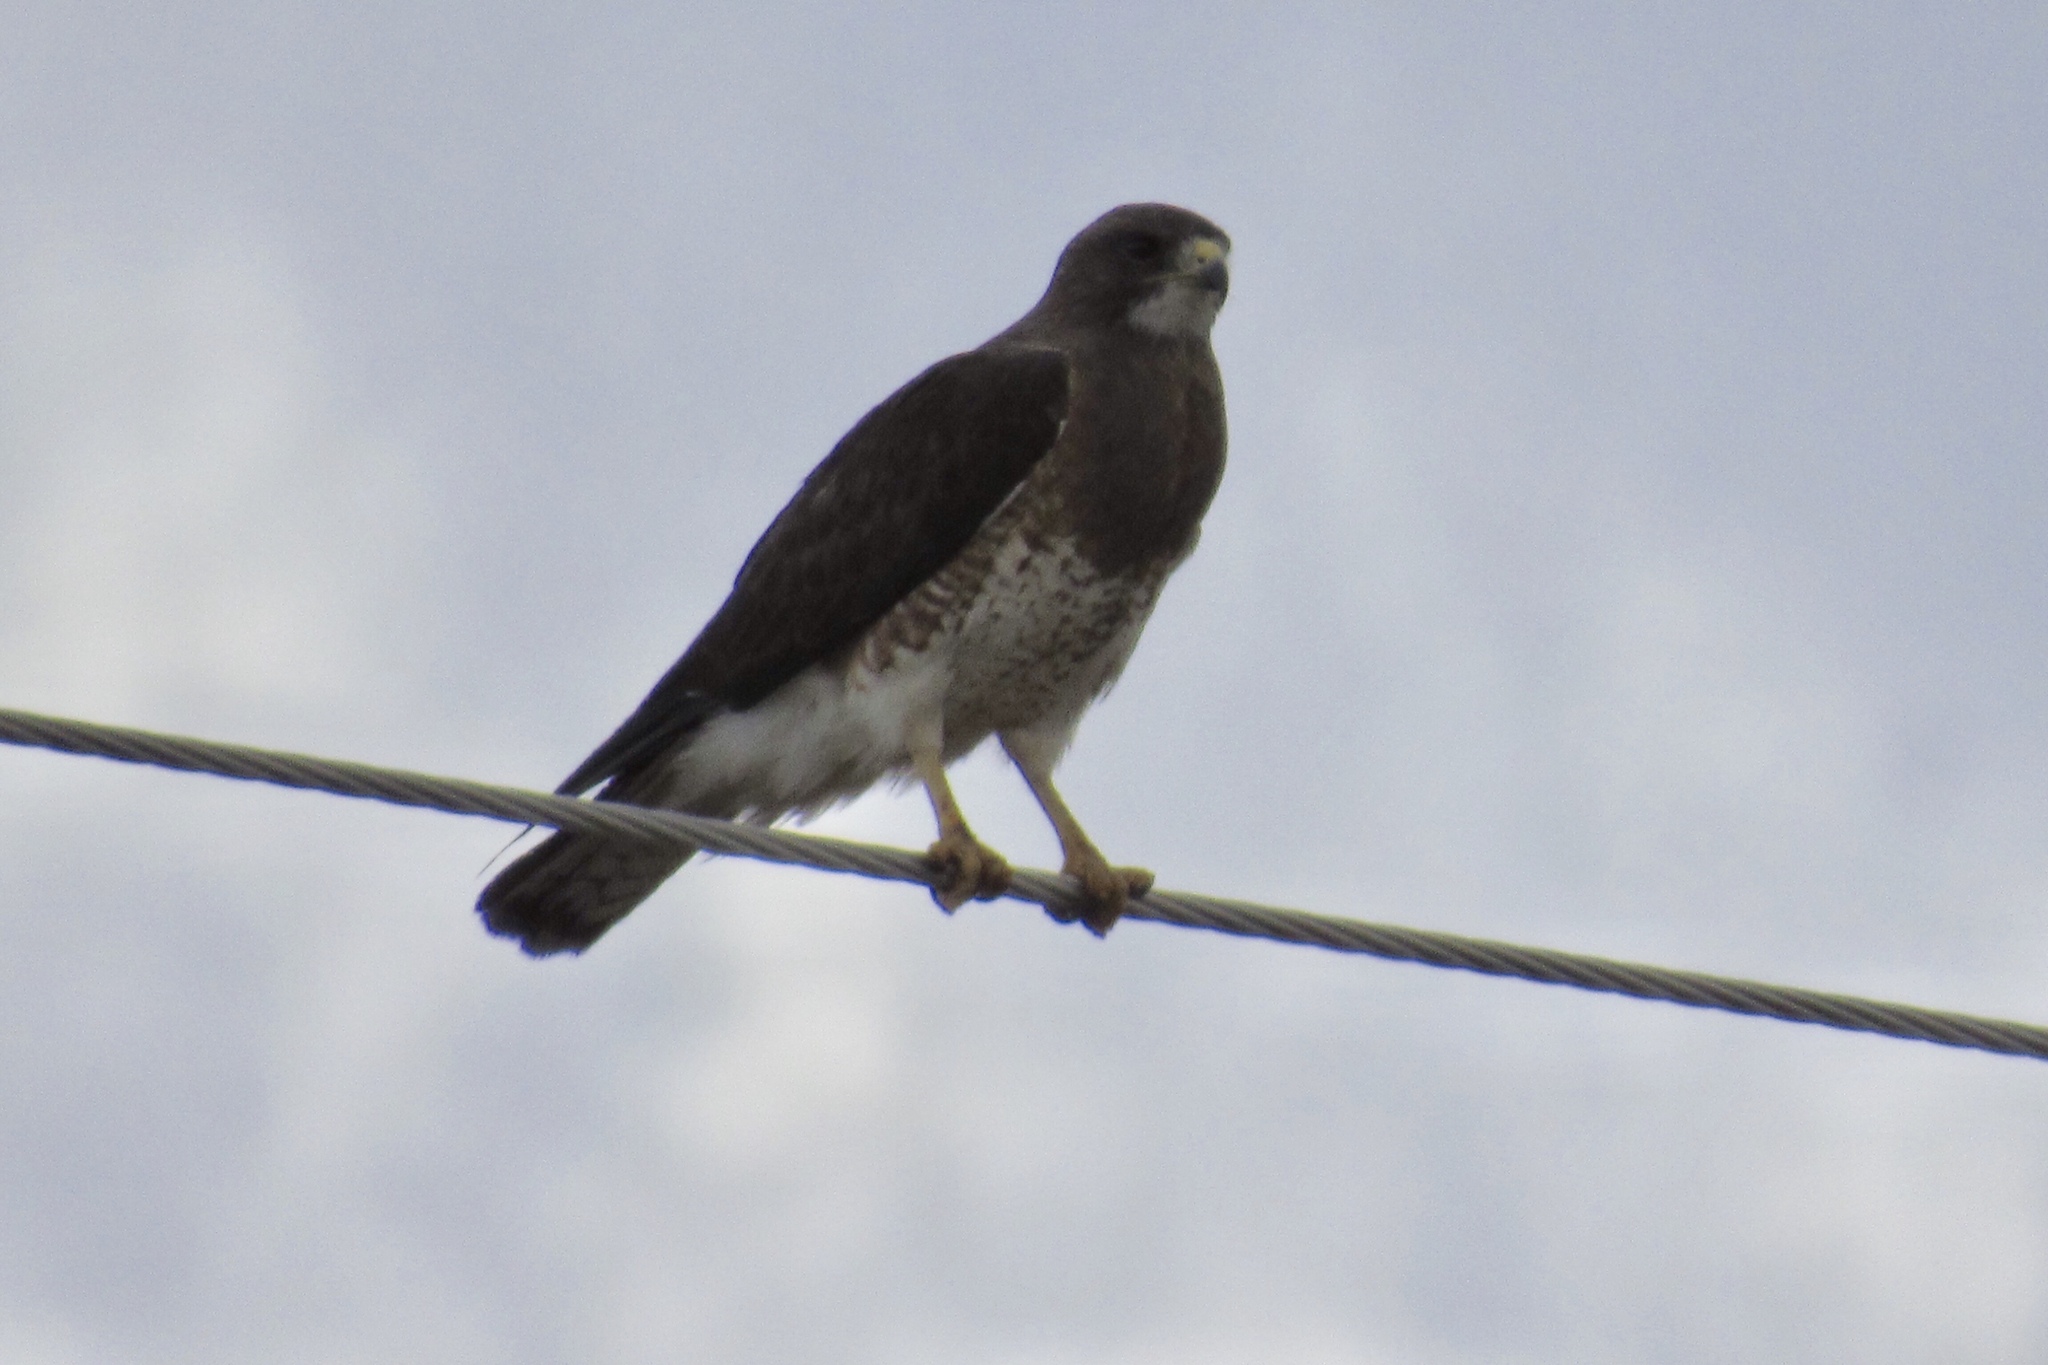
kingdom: Animalia
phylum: Chordata
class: Aves
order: Accipitriformes
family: Accipitridae
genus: Buteo
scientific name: Buteo swainsoni
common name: Swainson's hawk
